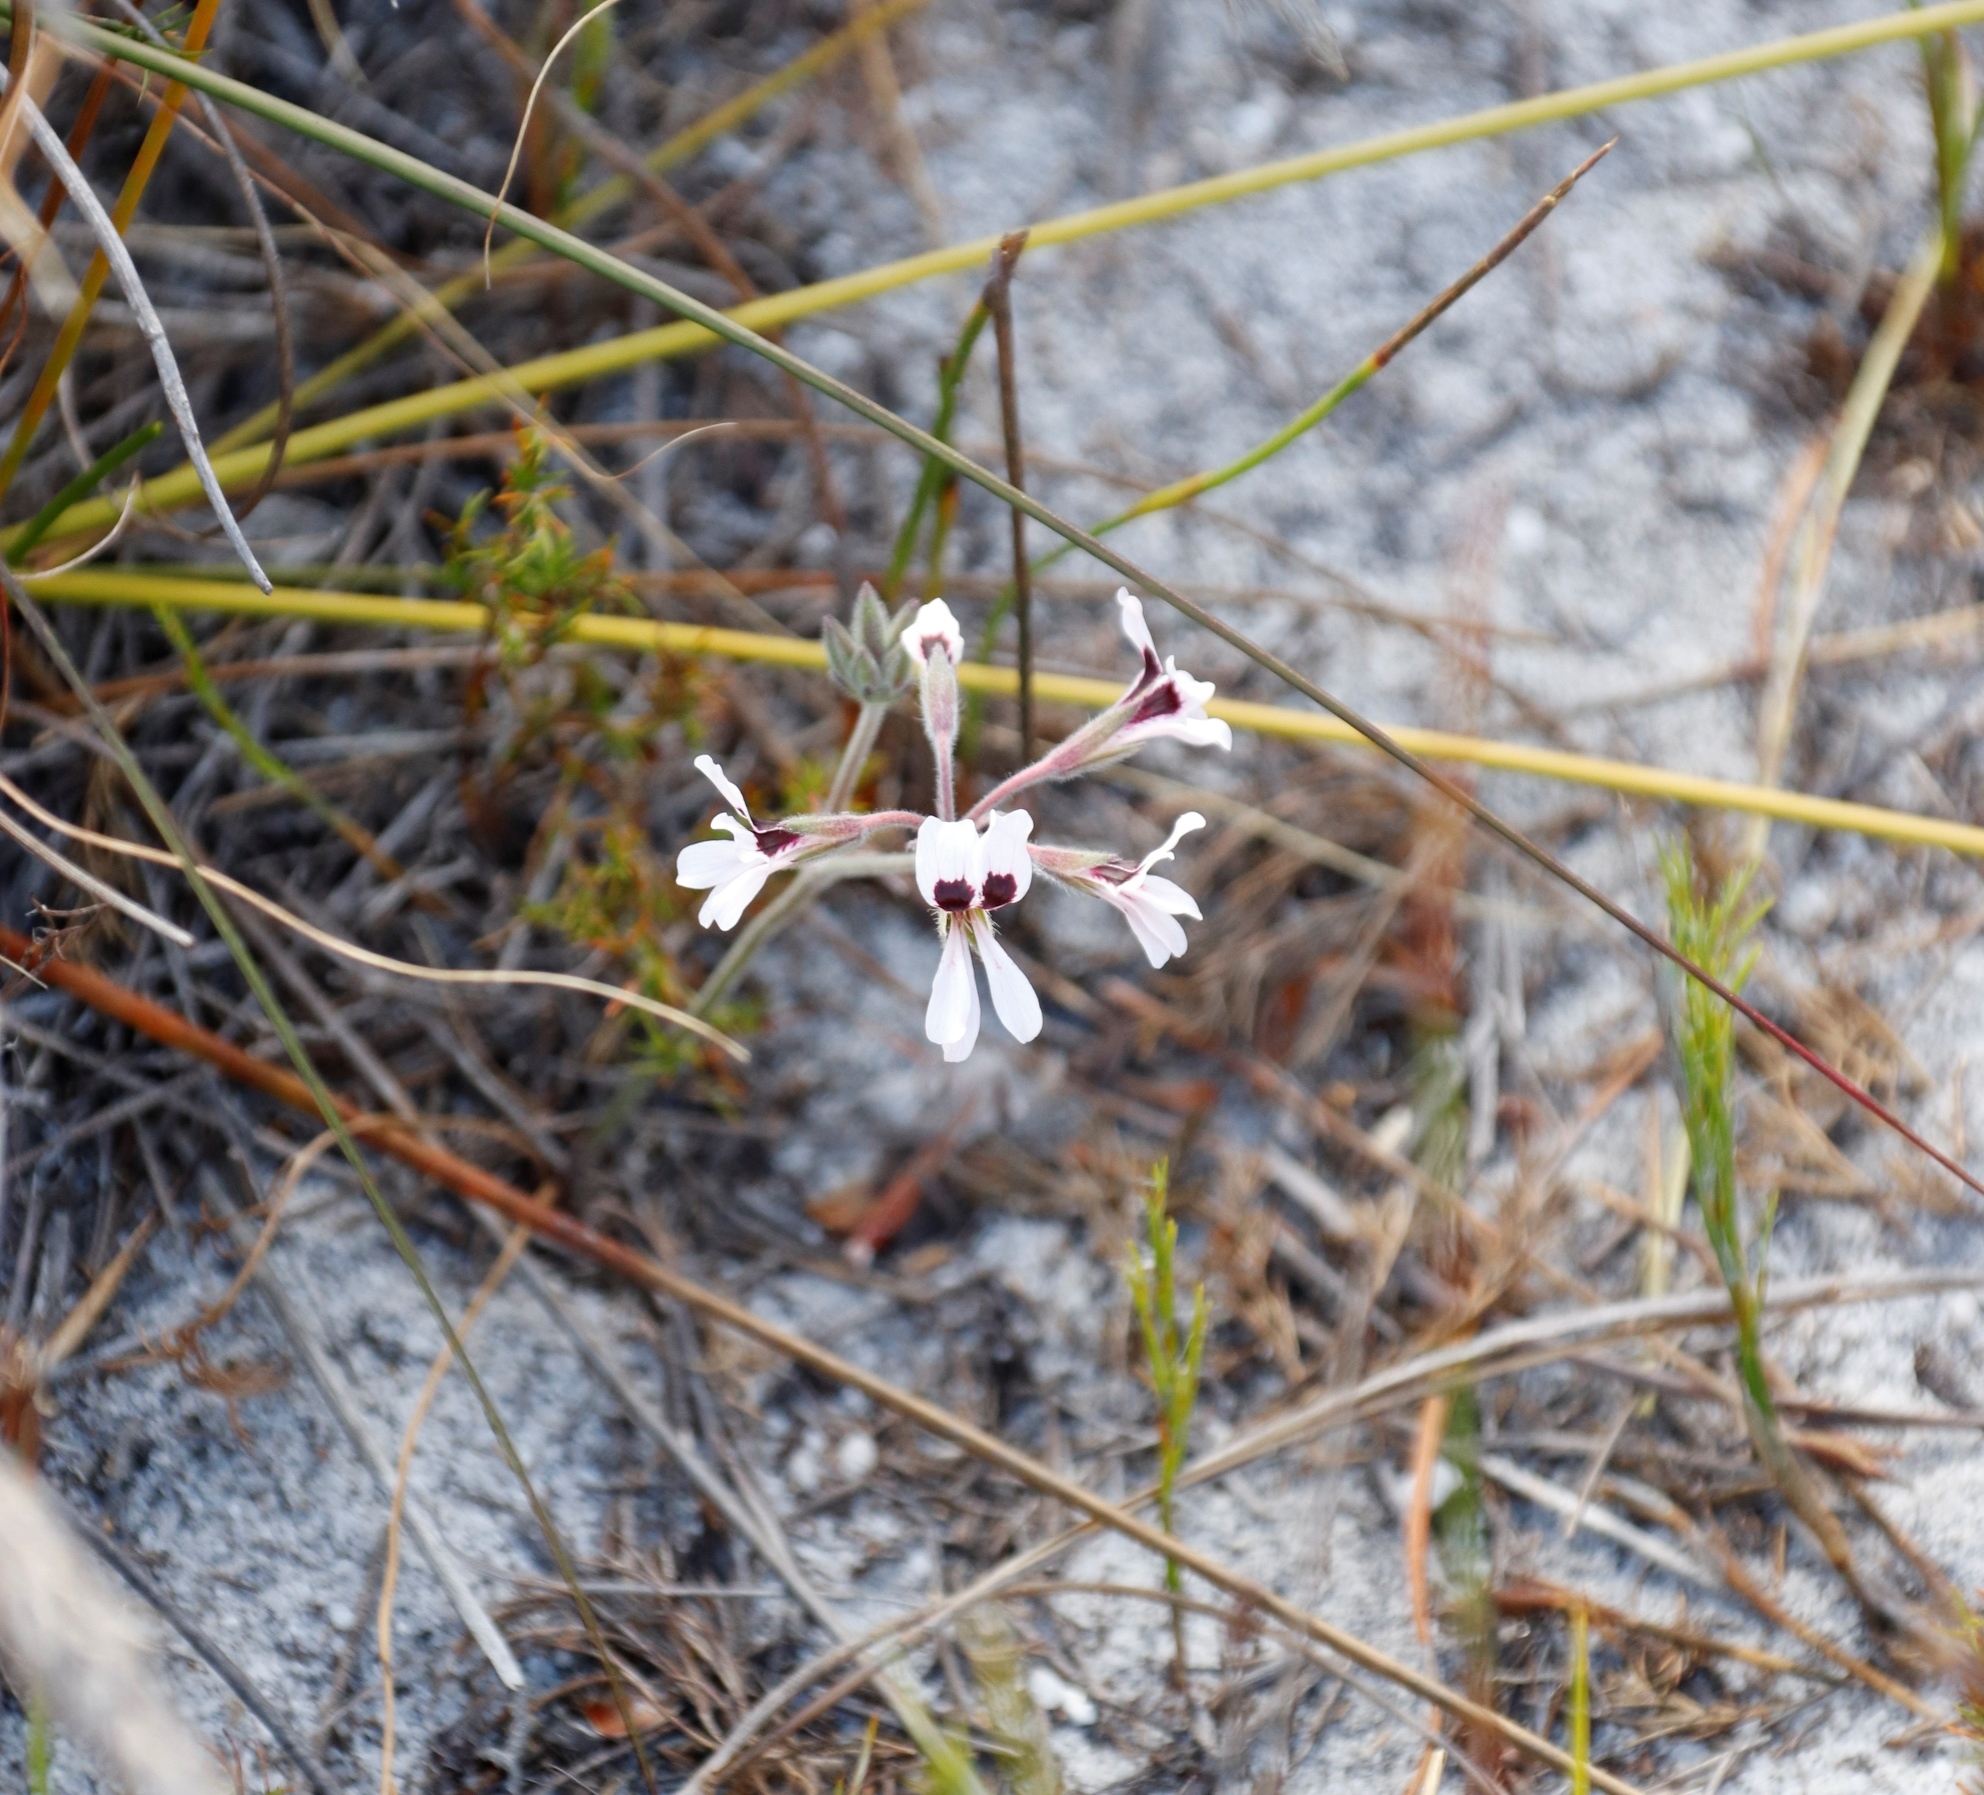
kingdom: Plantae
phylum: Tracheophyta
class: Magnoliopsida
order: Geraniales
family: Geraniaceae
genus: Pelargonium
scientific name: Pelargonium psammophilum
